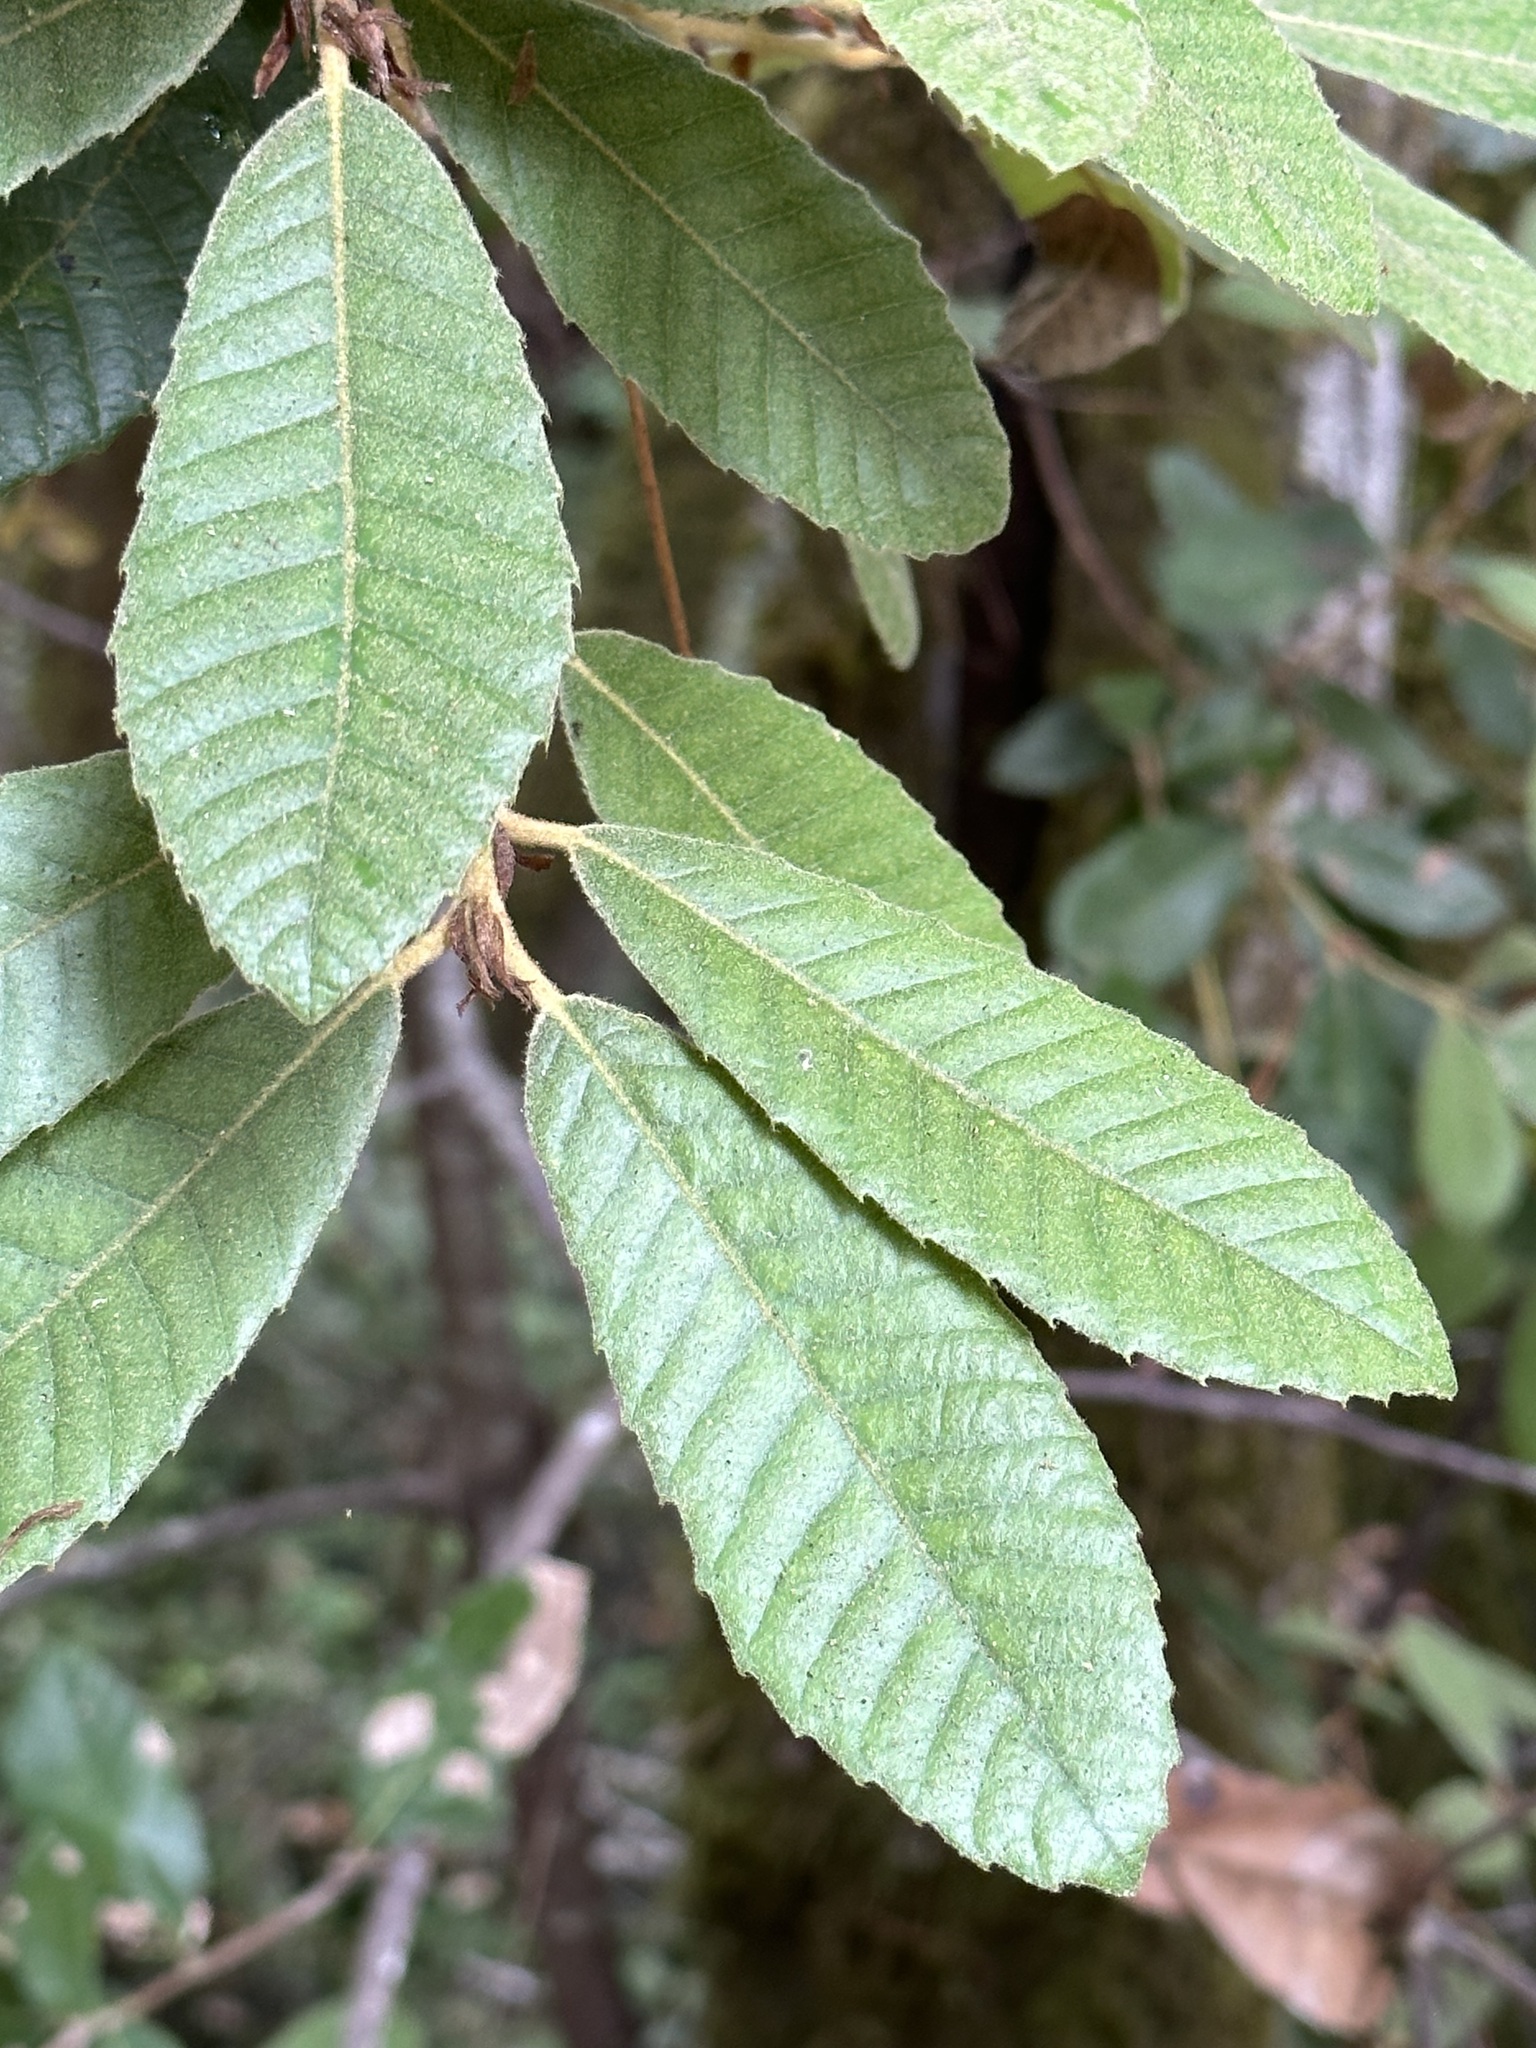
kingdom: Plantae
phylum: Tracheophyta
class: Magnoliopsida
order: Fagales
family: Fagaceae
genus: Notholithocarpus
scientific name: Notholithocarpus densiflorus
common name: Tan bark oak
